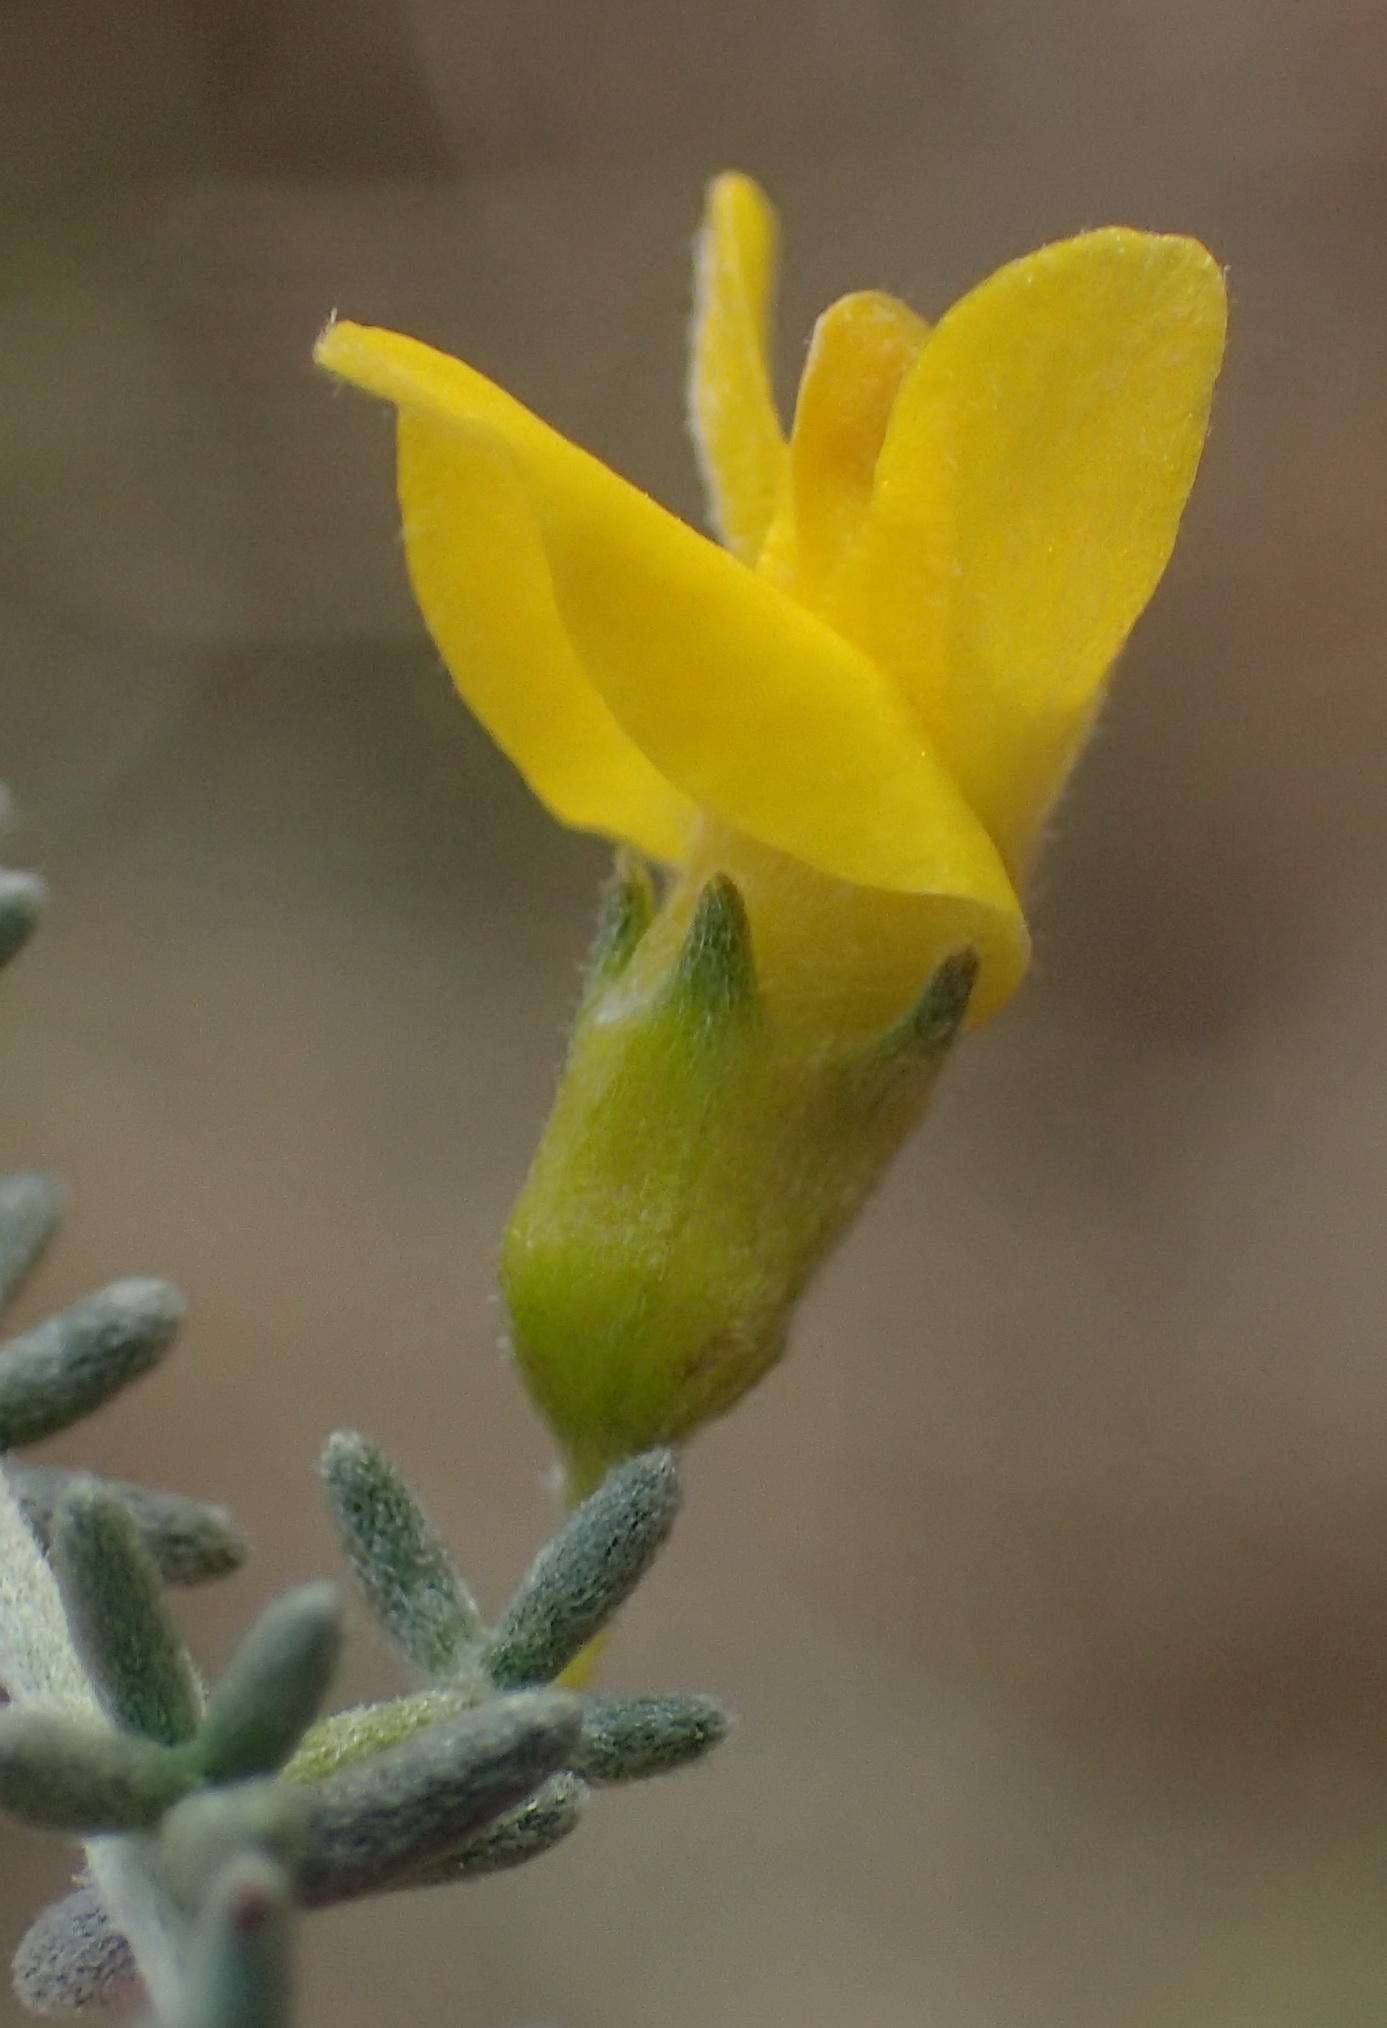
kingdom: Plantae
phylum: Tracheophyta
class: Magnoliopsida
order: Fabales
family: Fabaceae
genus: Aspalathus
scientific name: Aspalathus pedunculata
